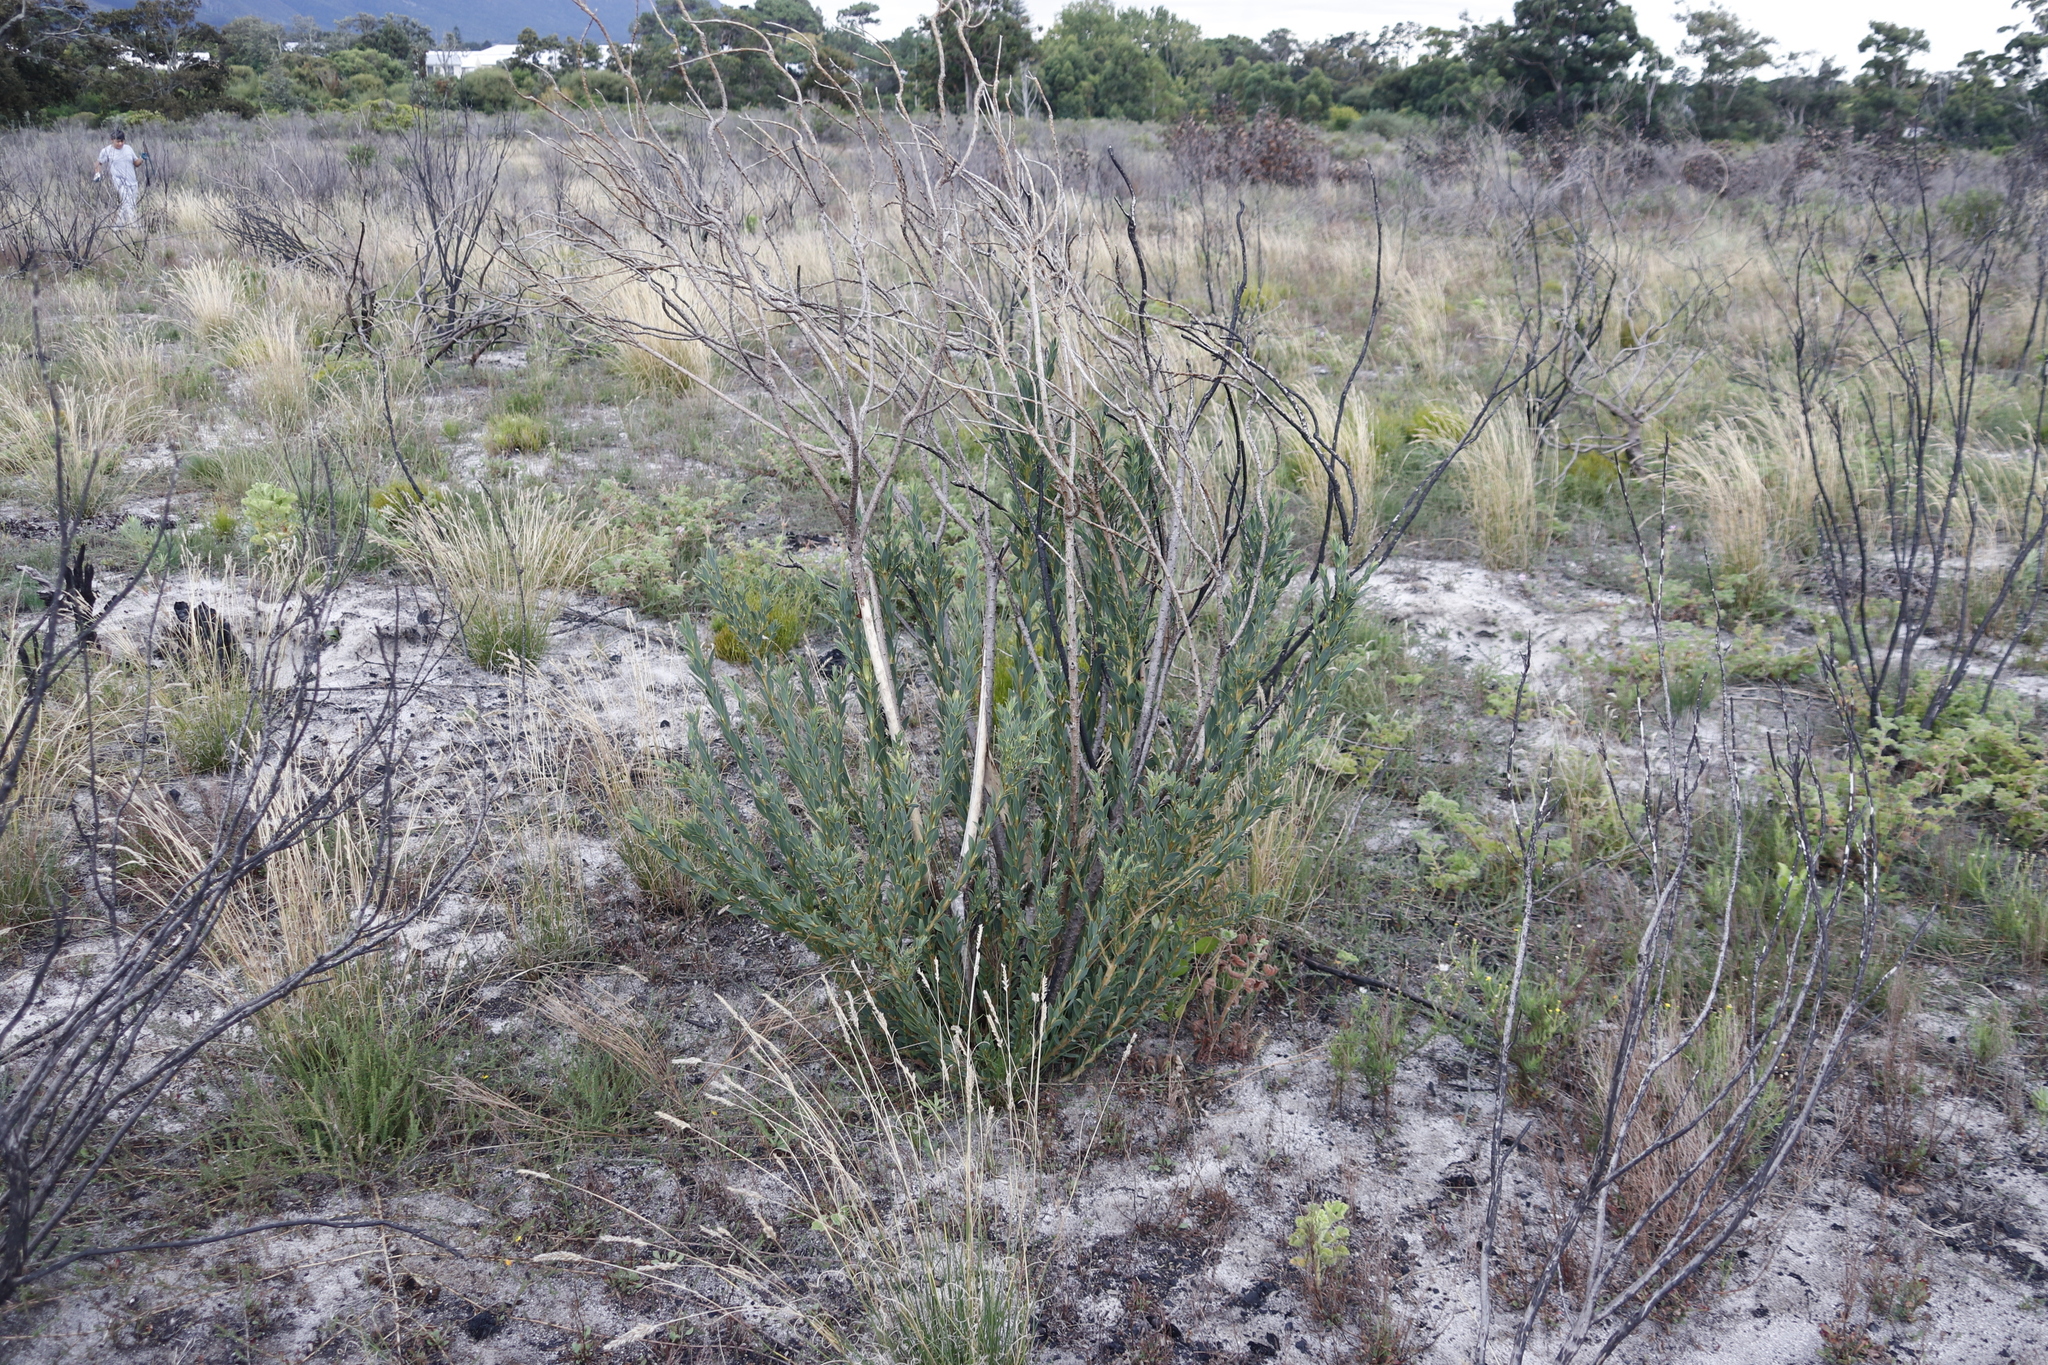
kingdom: Plantae
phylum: Tracheophyta
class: Magnoliopsida
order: Fabales
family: Fabaceae
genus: Liparia
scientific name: Liparia splendens
